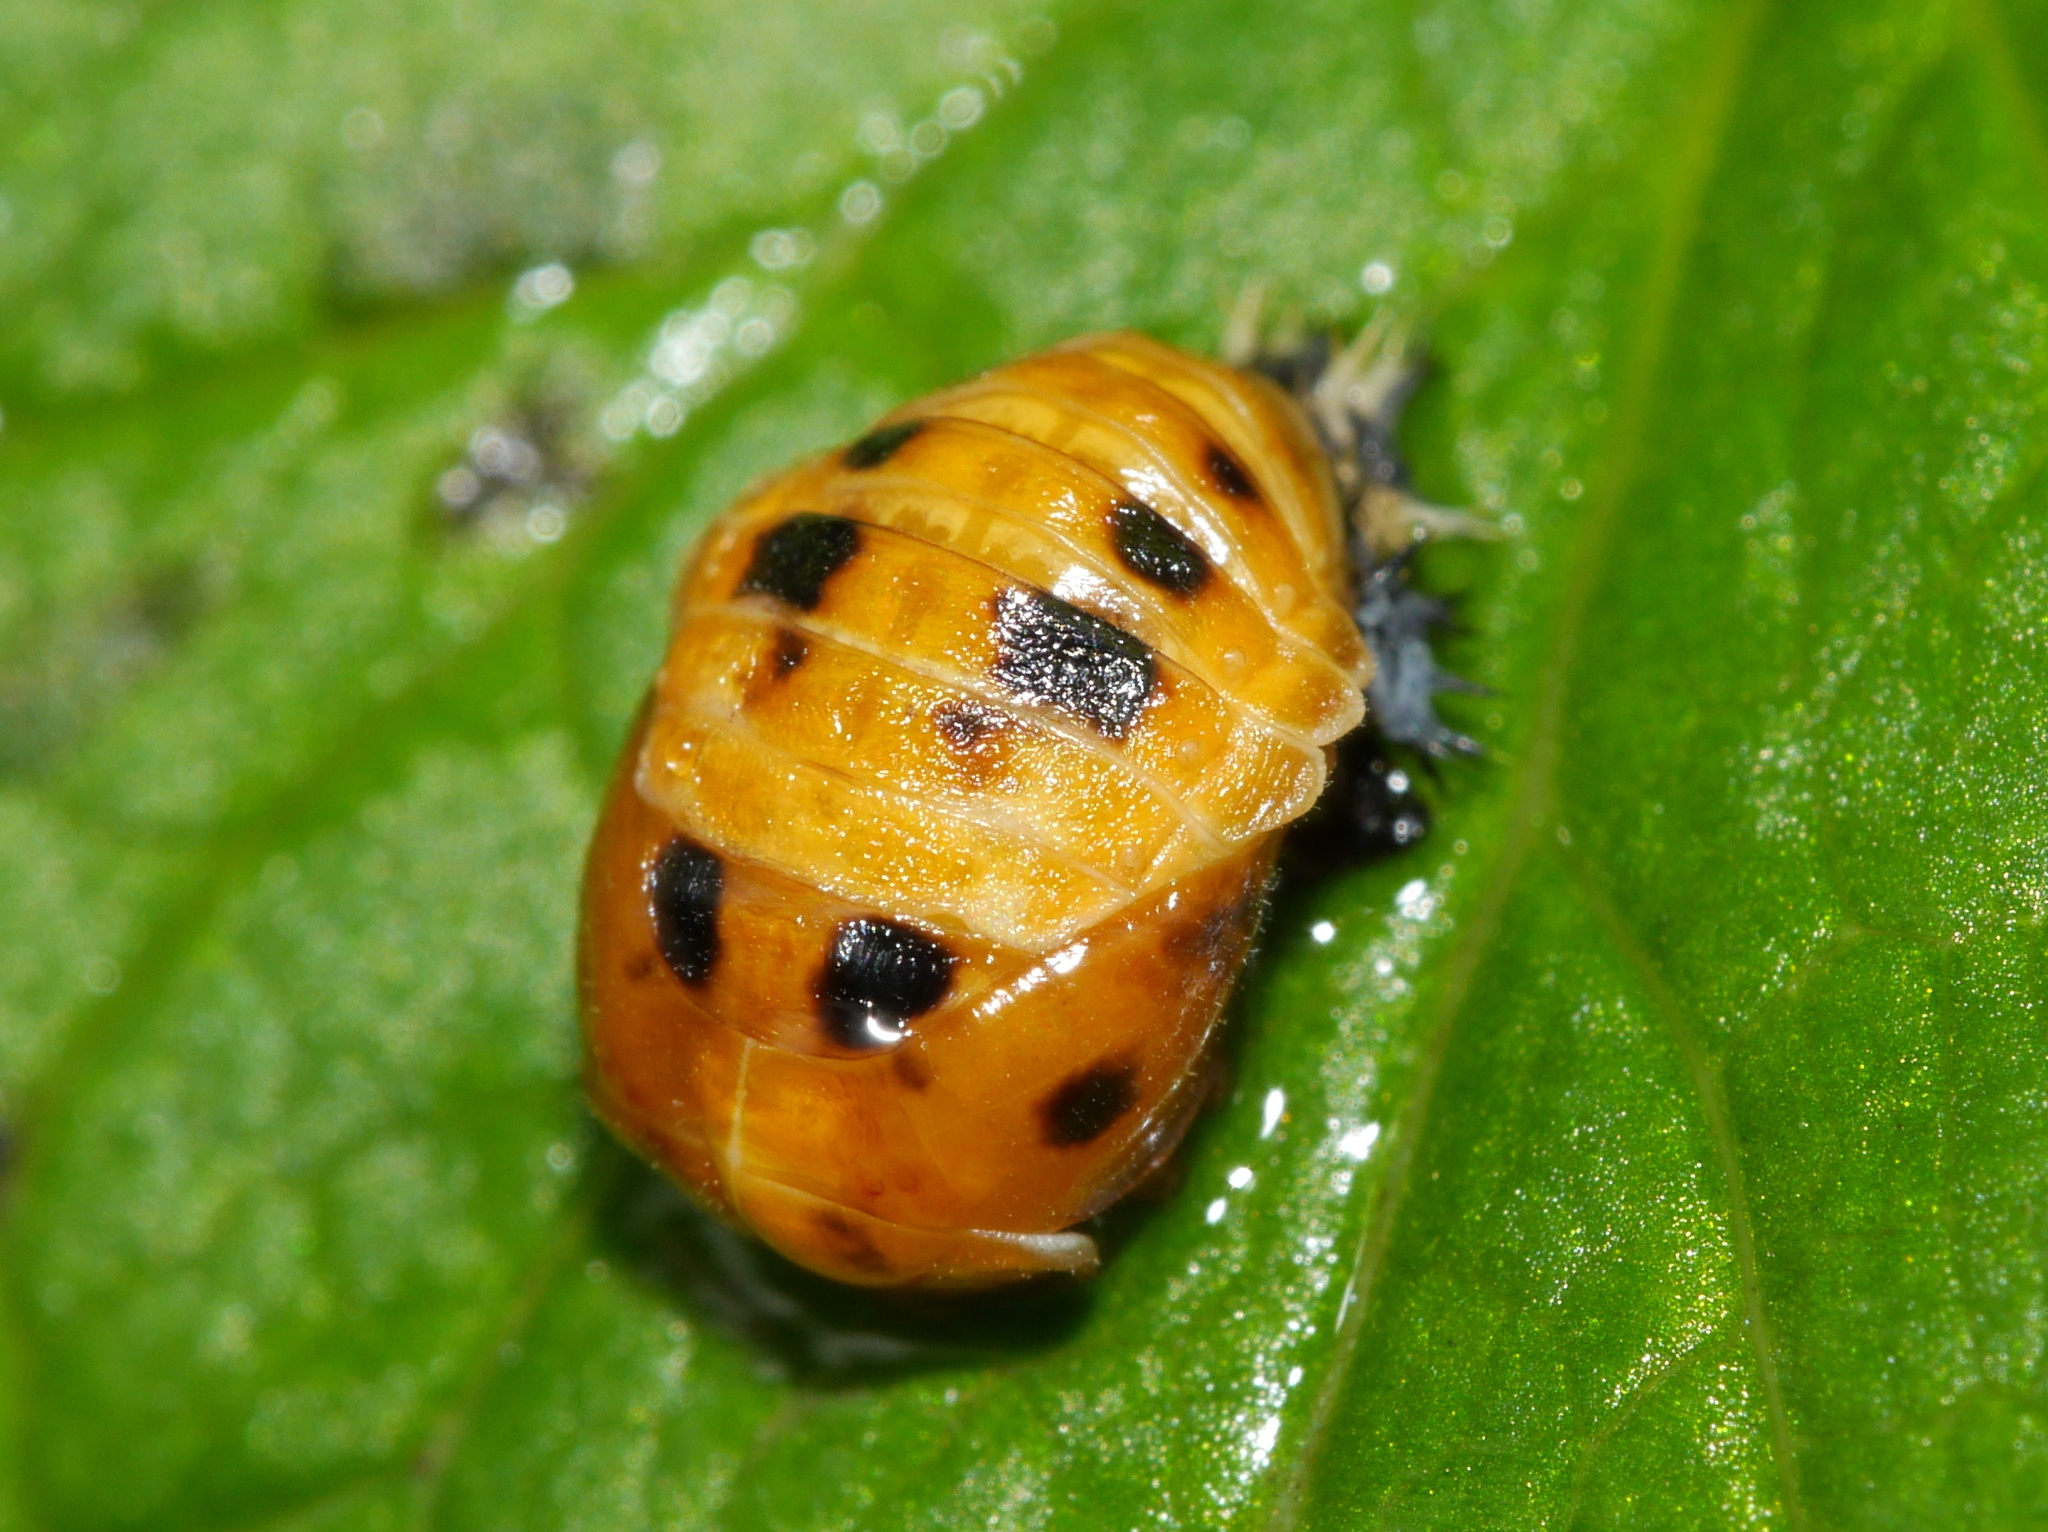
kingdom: Animalia
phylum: Arthropoda
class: Insecta
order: Coleoptera
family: Coccinellidae
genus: Harmonia
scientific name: Harmonia axyridis
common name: Harlequin ladybird
